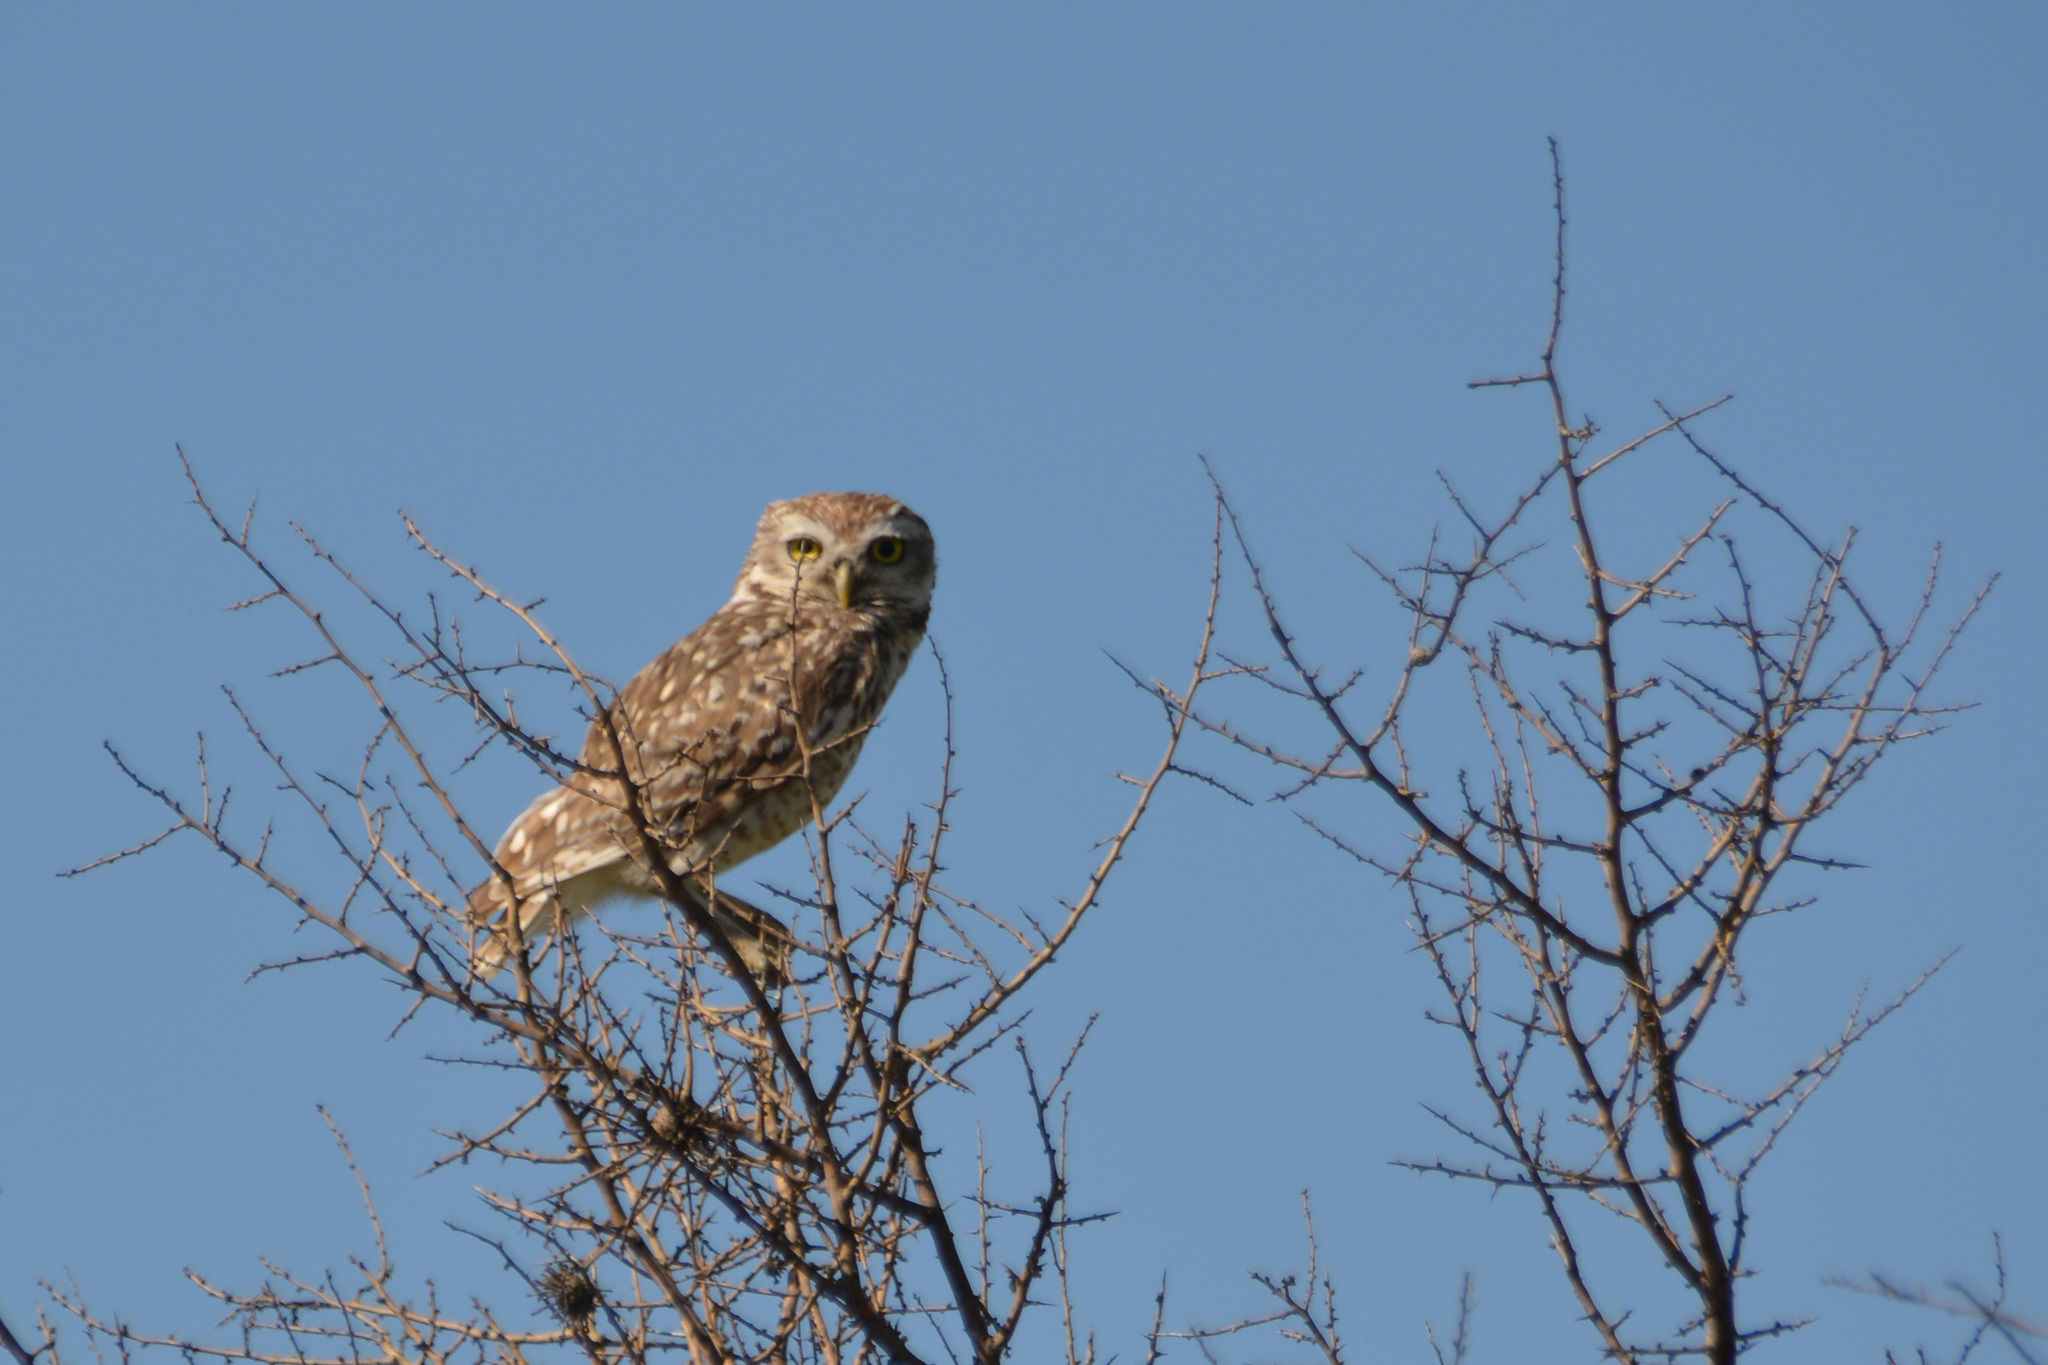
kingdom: Animalia
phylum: Chordata
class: Aves
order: Strigiformes
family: Strigidae
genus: Athene
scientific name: Athene cunicularia
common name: Burrowing owl
